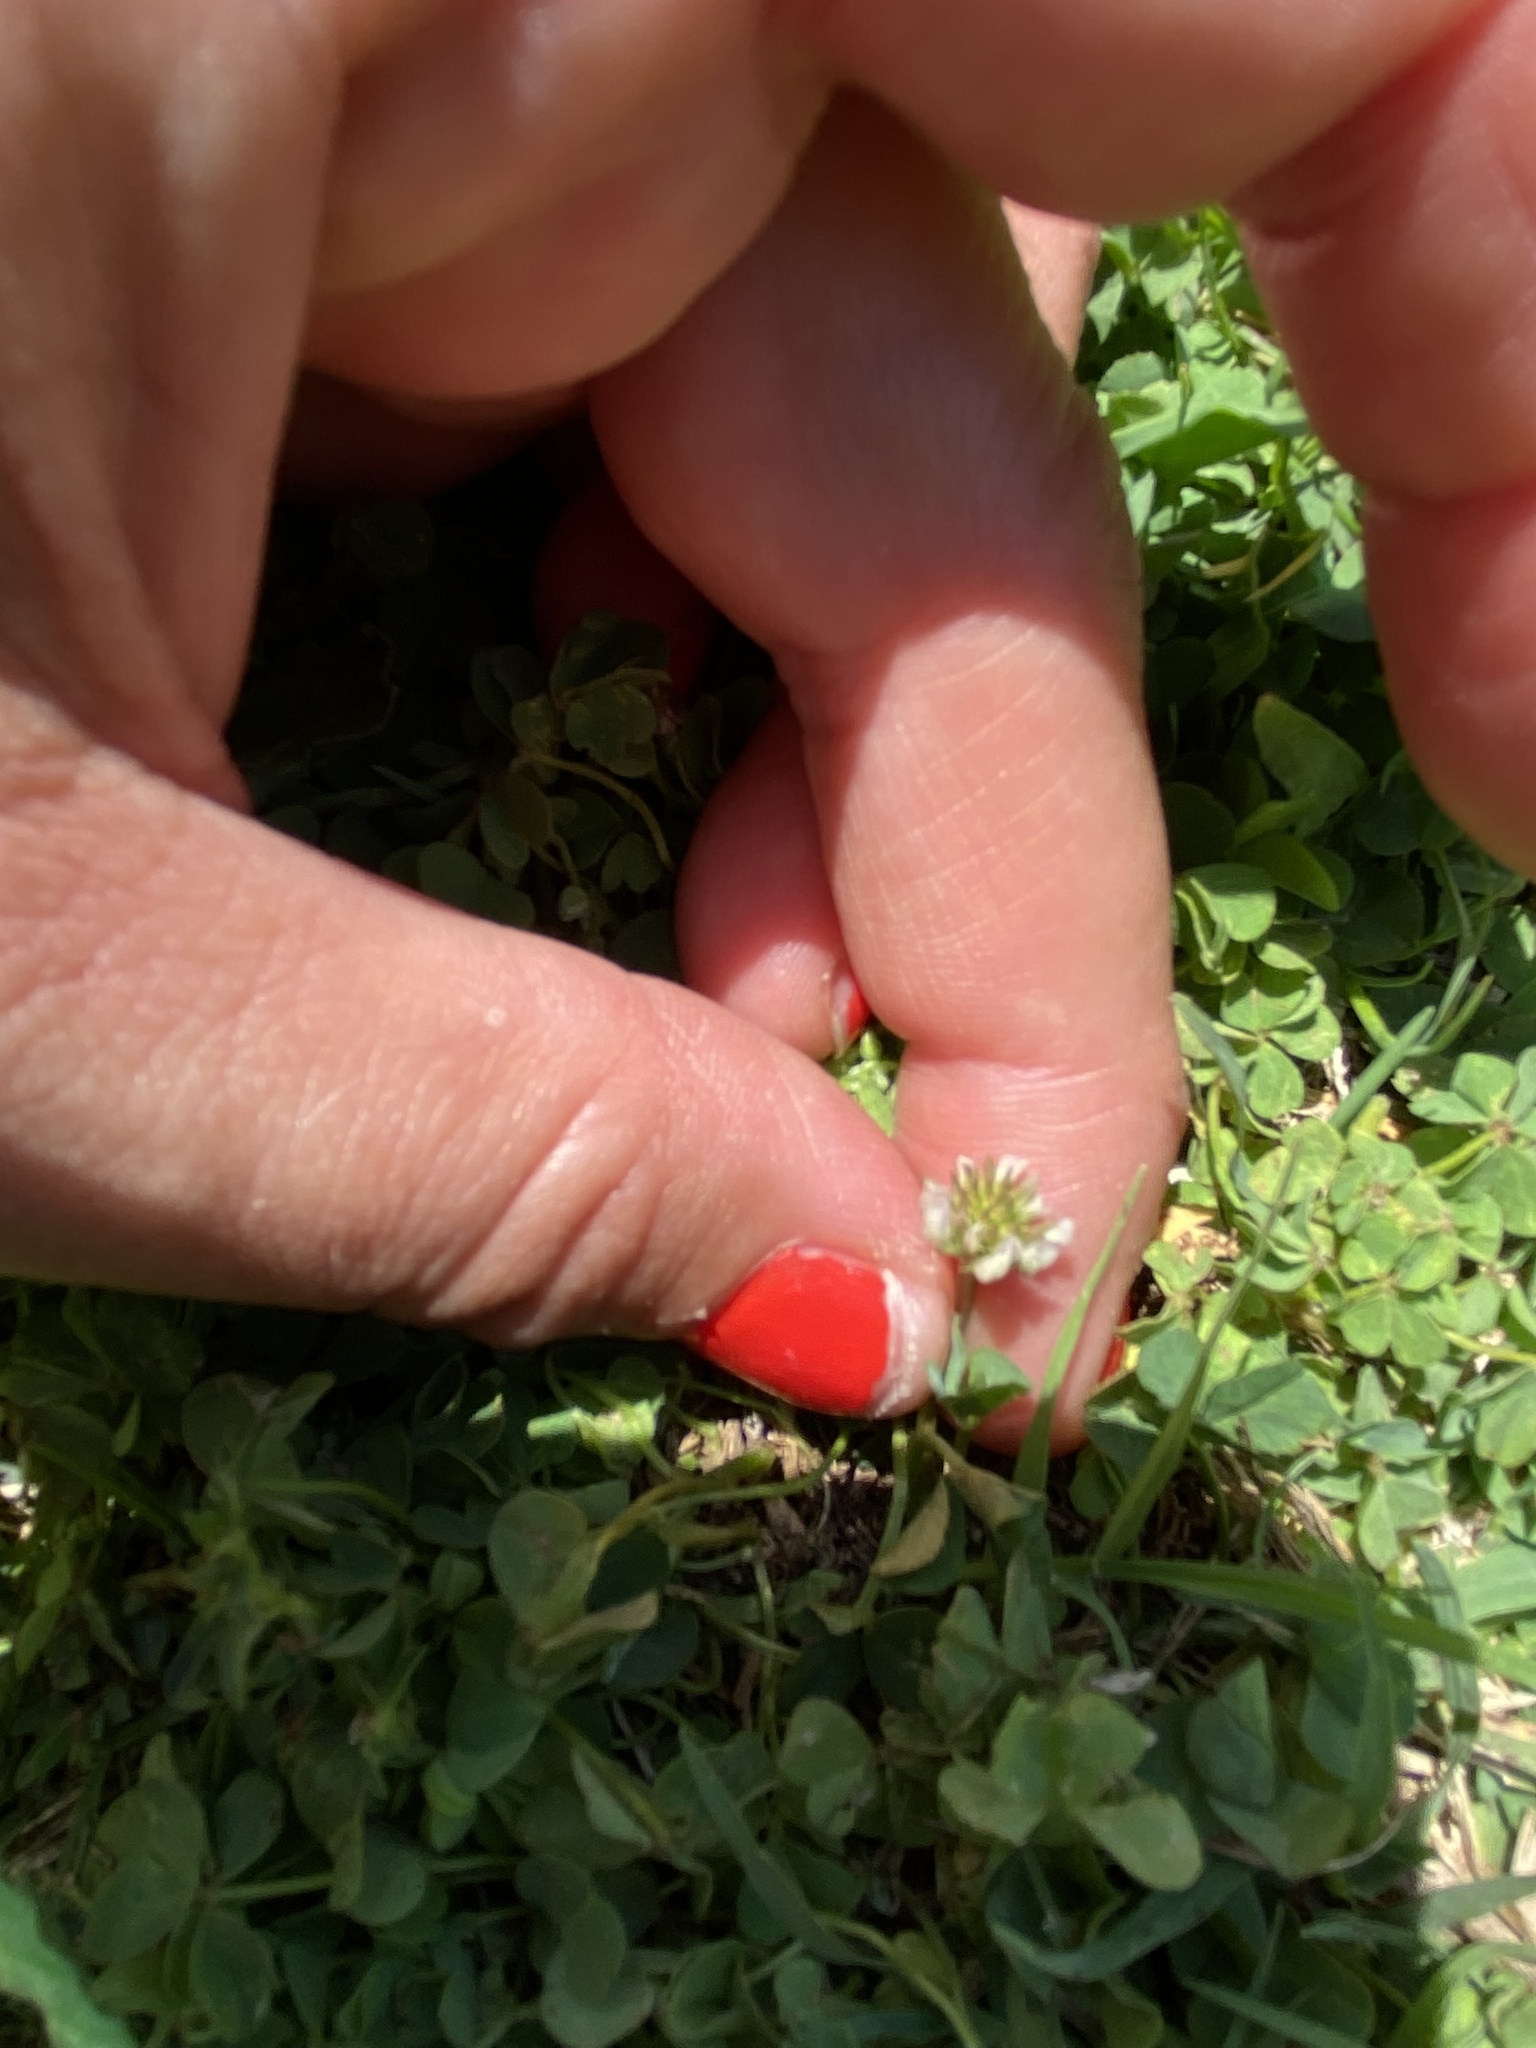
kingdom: Plantae
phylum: Tracheophyta
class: Magnoliopsida
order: Fabales
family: Fabaceae
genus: Trifolium
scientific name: Trifolium repens
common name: White clover
